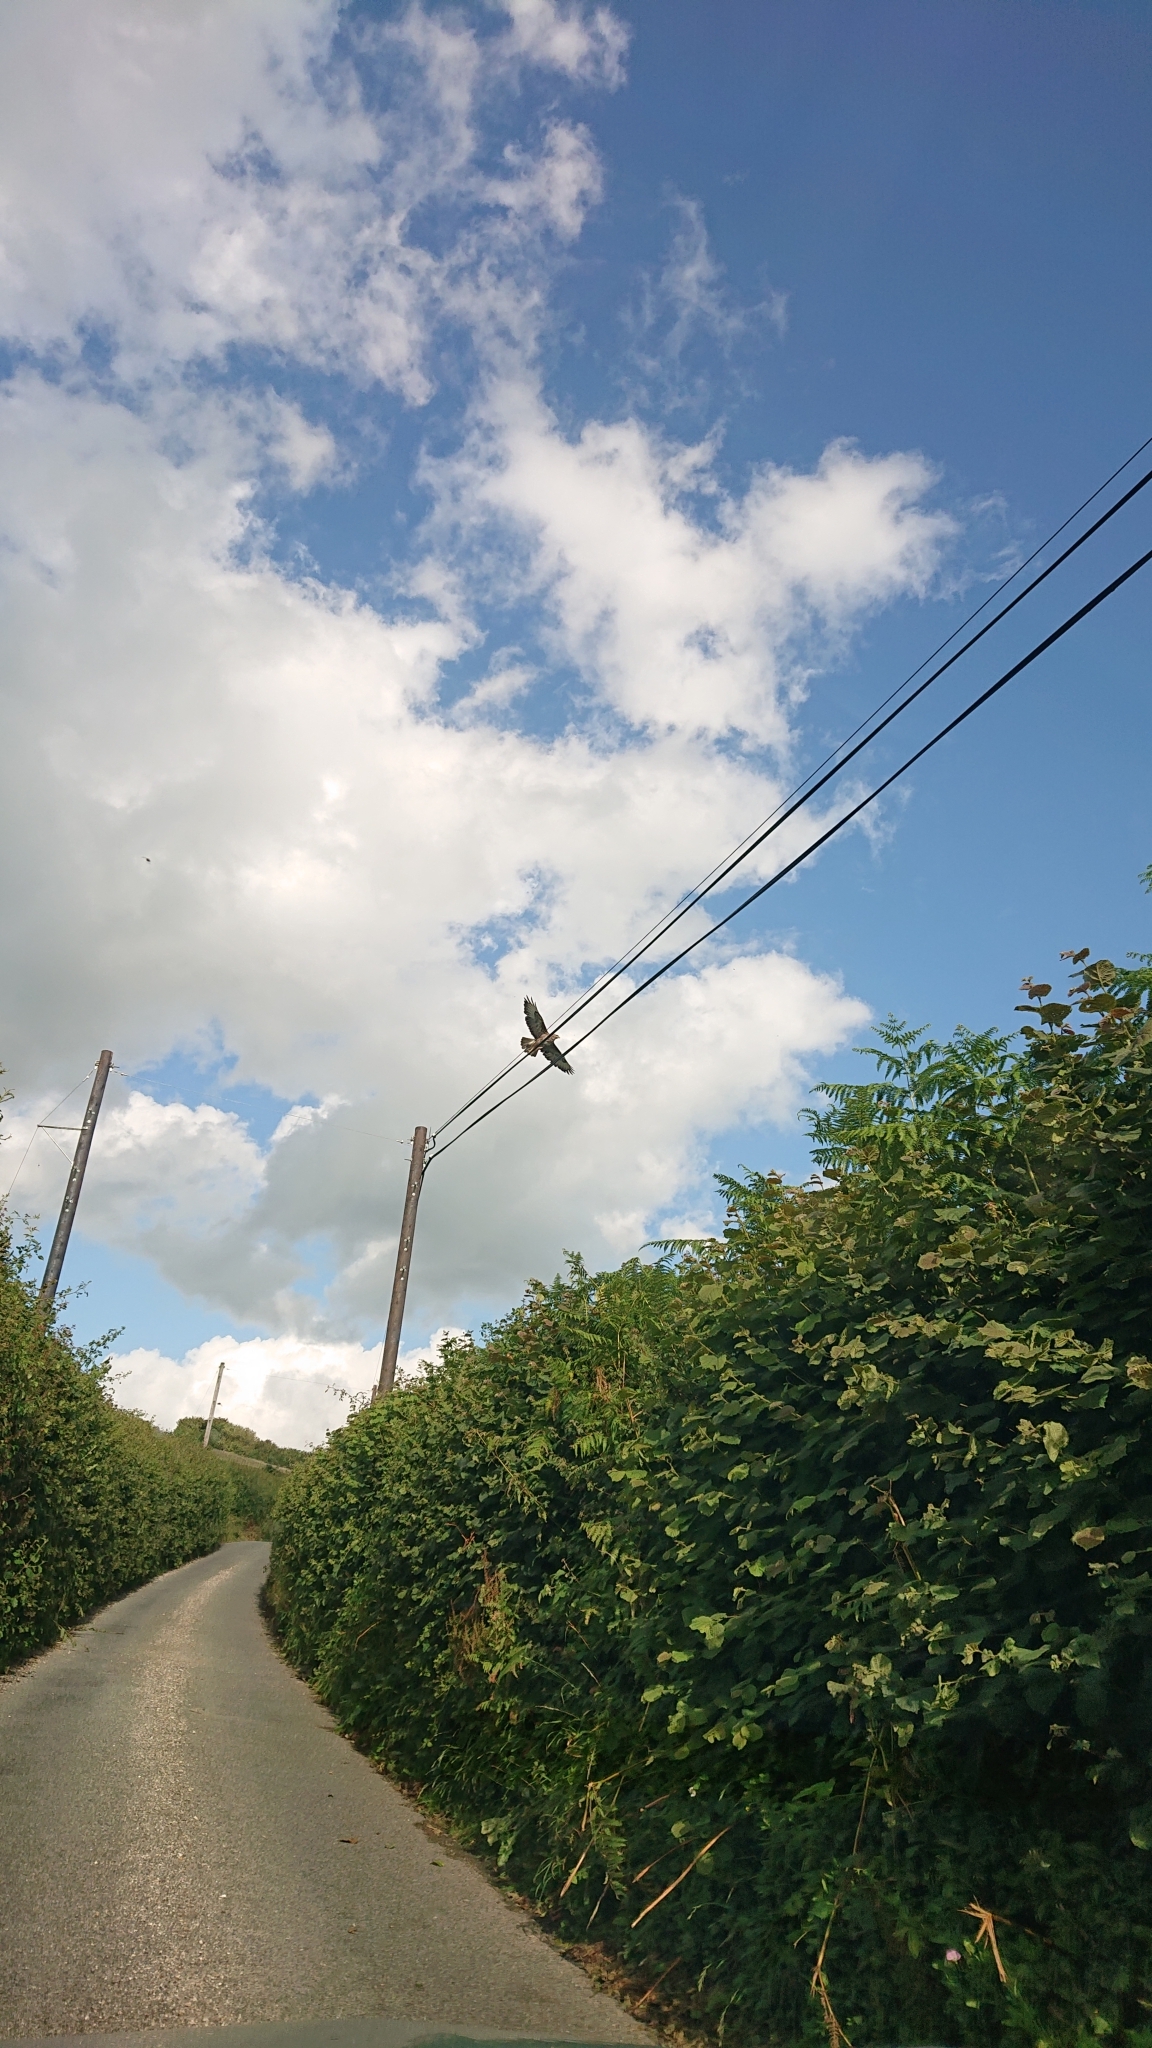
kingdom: Animalia
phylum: Chordata
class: Aves
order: Accipitriformes
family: Accipitridae
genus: Buteo
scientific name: Buteo buteo
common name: Common buzzard
